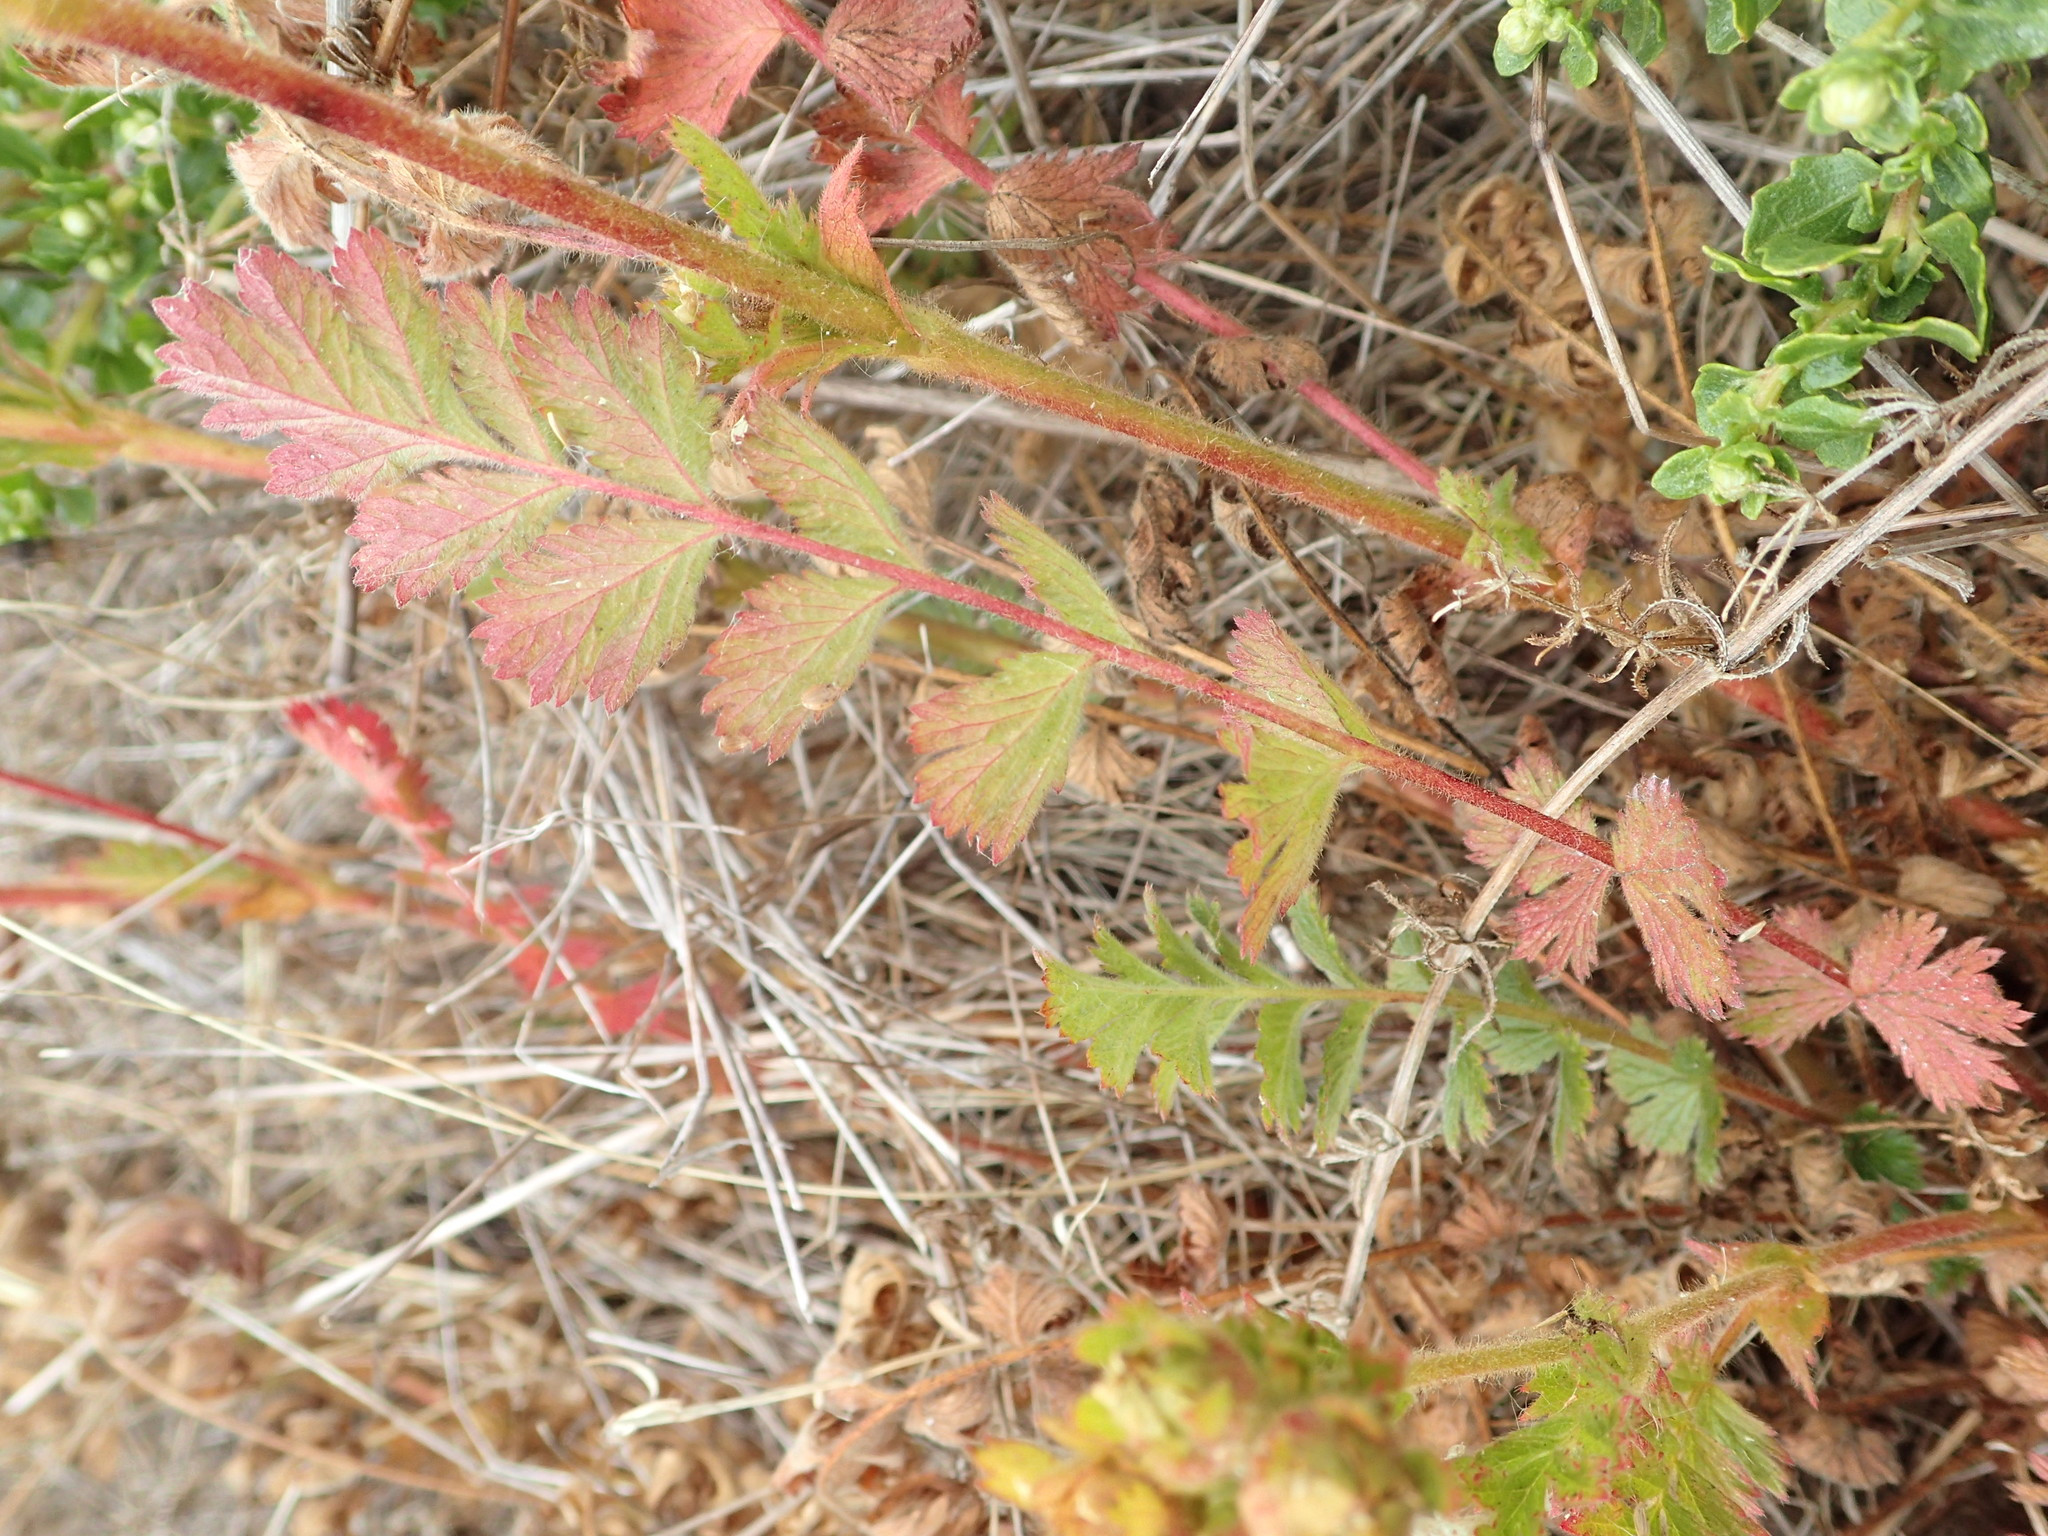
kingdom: Plantae
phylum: Tracheophyta
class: Magnoliopsida
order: Rosales
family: Rosaceae
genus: Potentilla
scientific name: Potentilla californica
